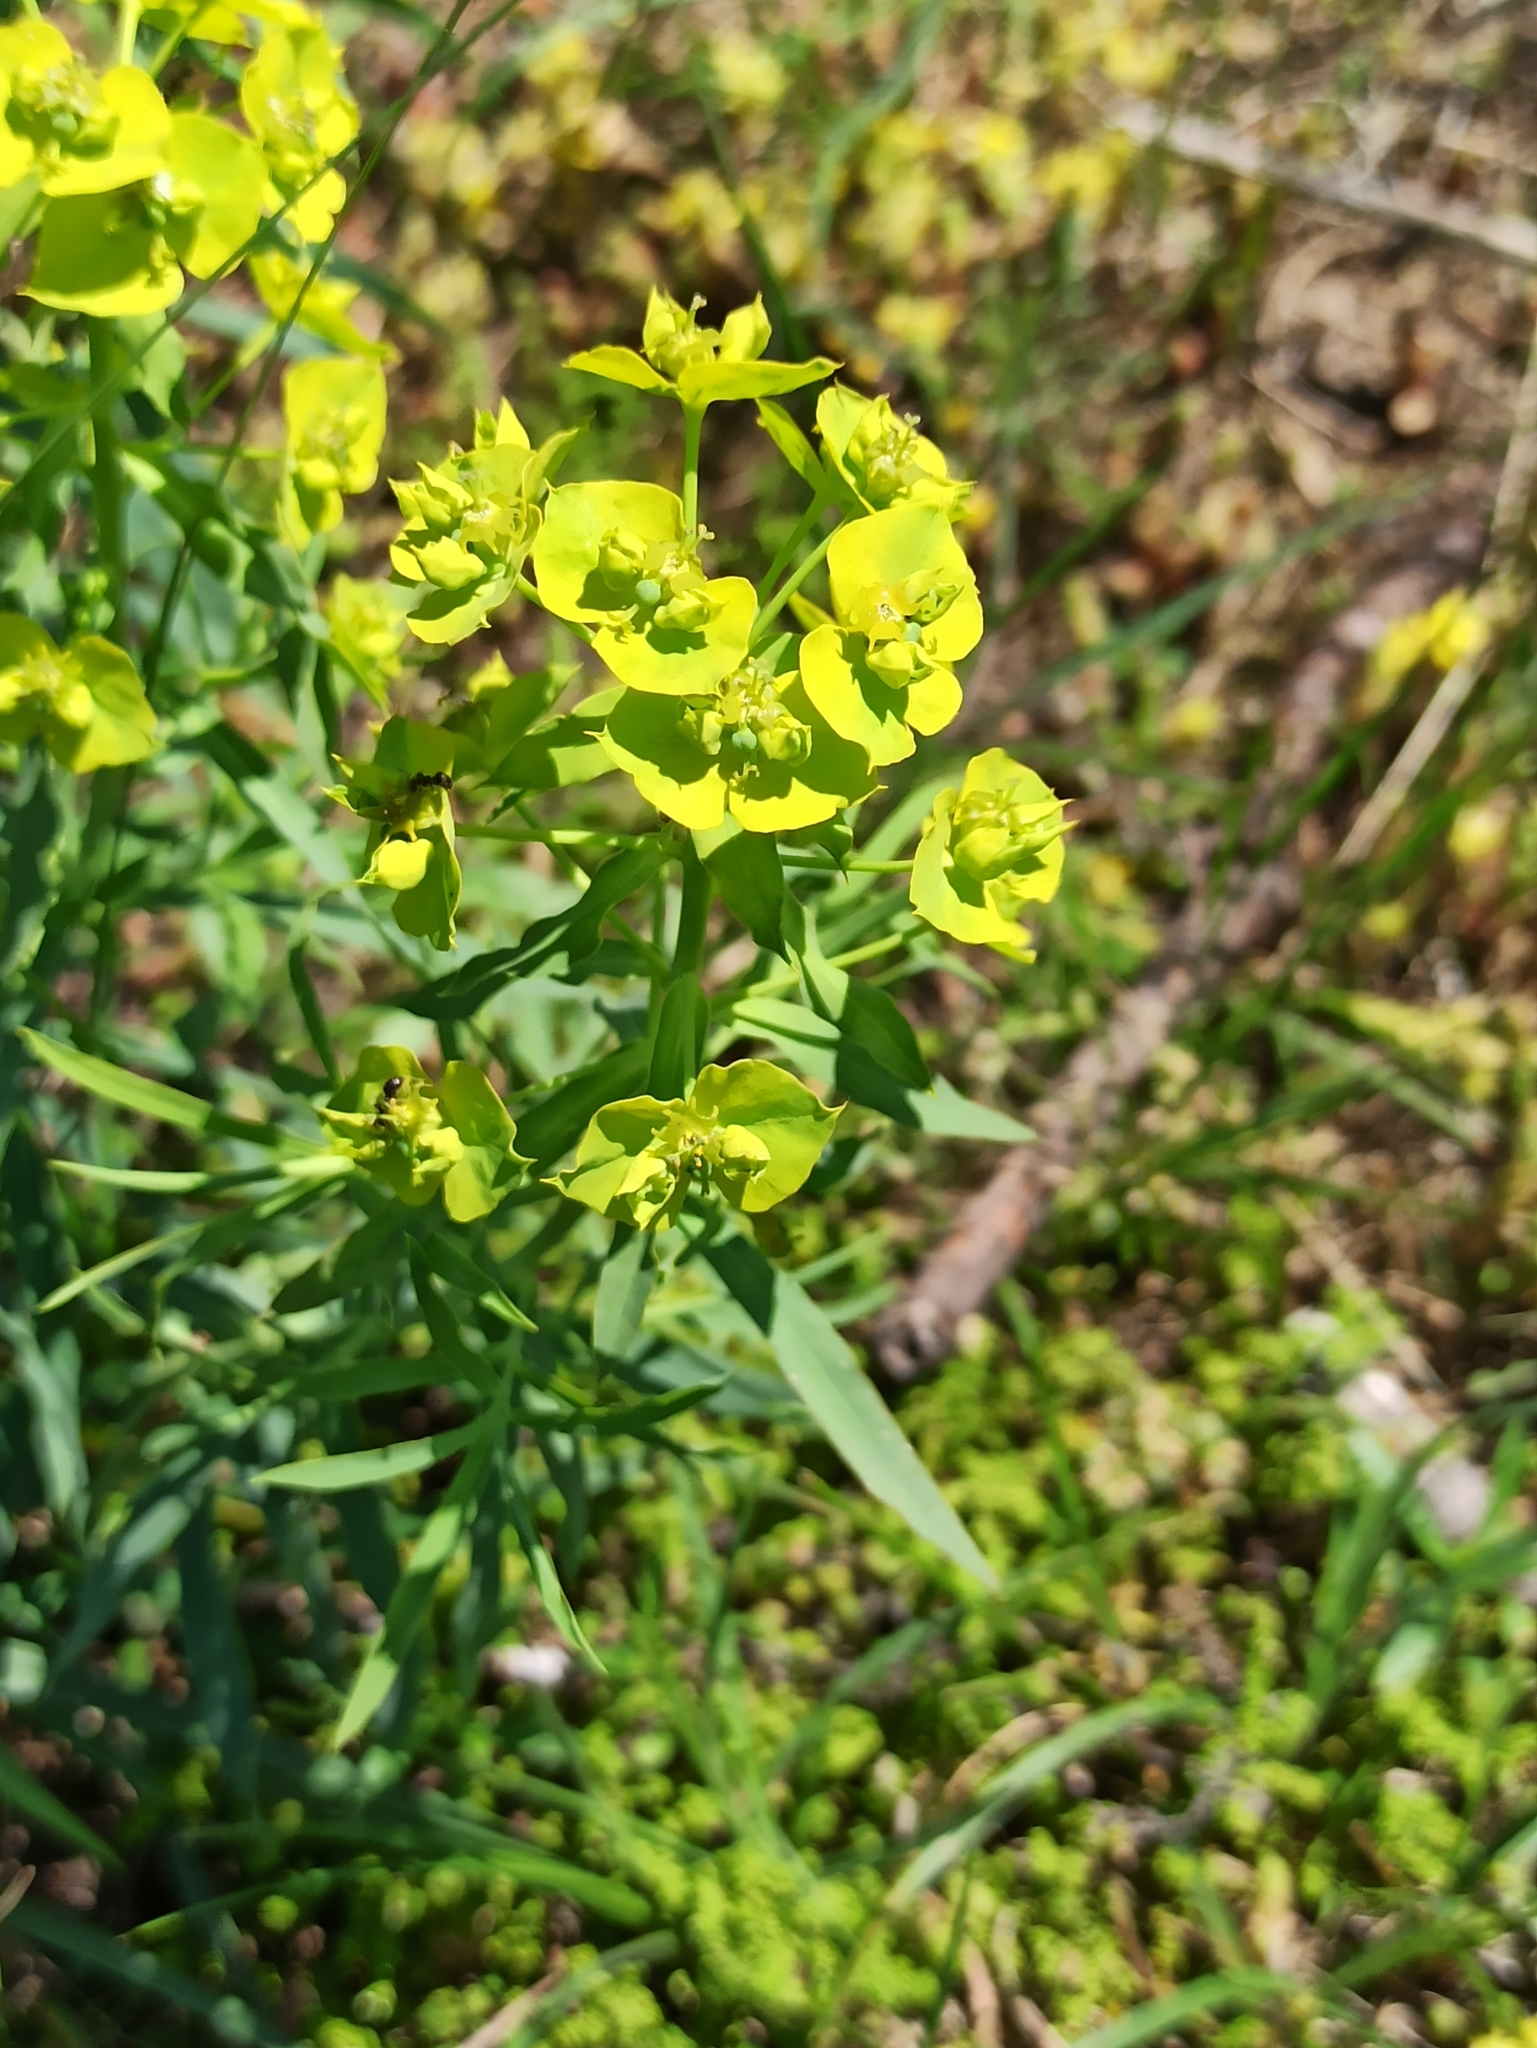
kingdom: Plantae
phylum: Tracheophyta
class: Magnoliopsida
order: Malpighiales
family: Euphorbiaceae
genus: Euphorbia
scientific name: Euphorbia virgata
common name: Leafy spurge
